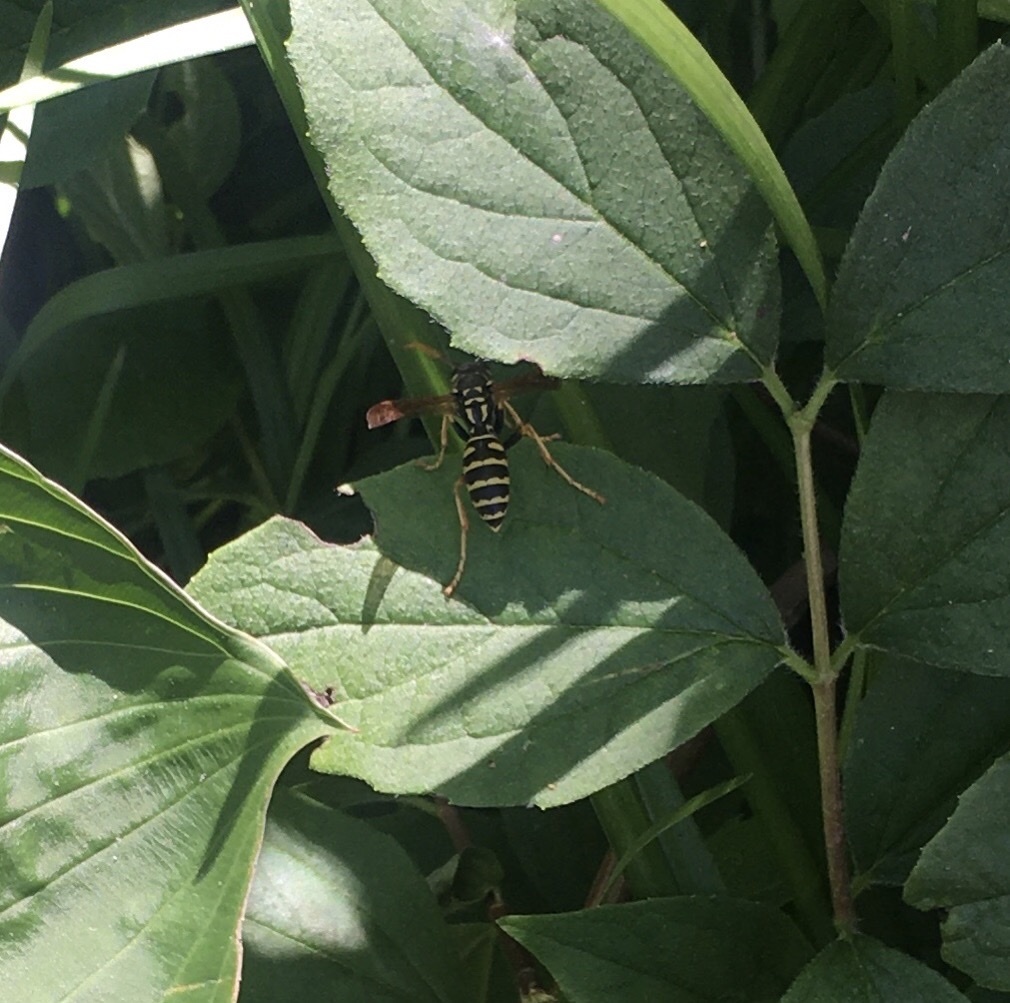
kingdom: Animalia
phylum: Arthropoda
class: Insecta
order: Hymenoptera
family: Eumenidae
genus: Polistes
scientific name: Polistes dominula
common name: Paper wasp
